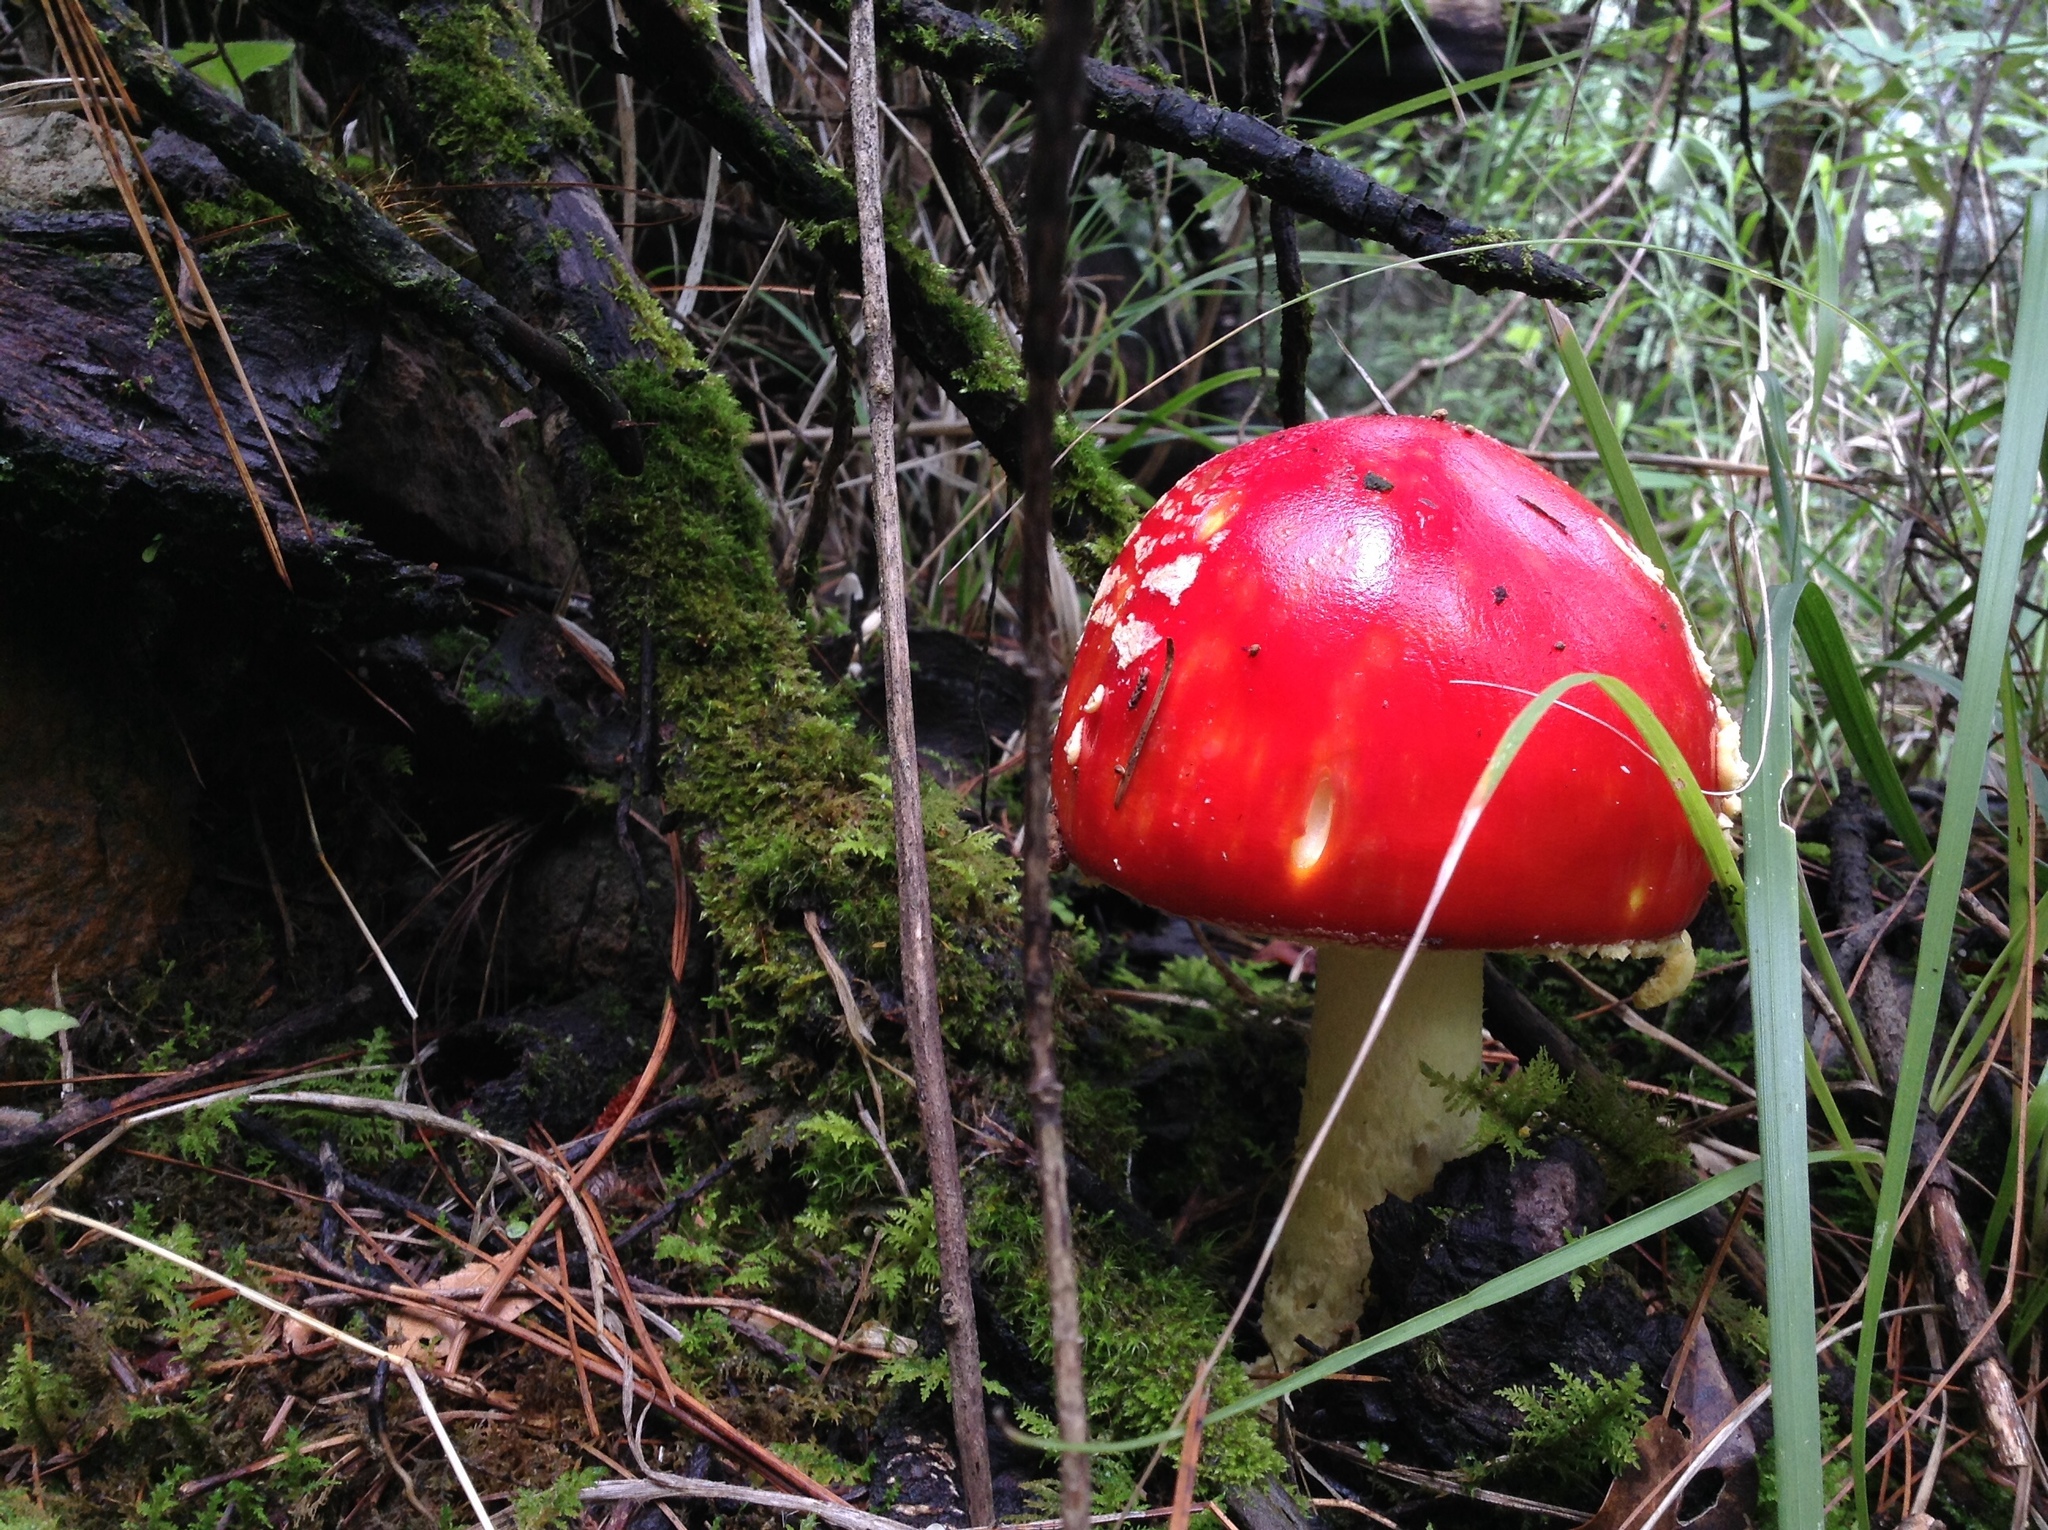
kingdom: Fungi
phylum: Basidiomycota
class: Agaricomycetes
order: Agaricales
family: Amanitaceae
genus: Amanita
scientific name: Amanita muscaria
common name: Fly agaric
